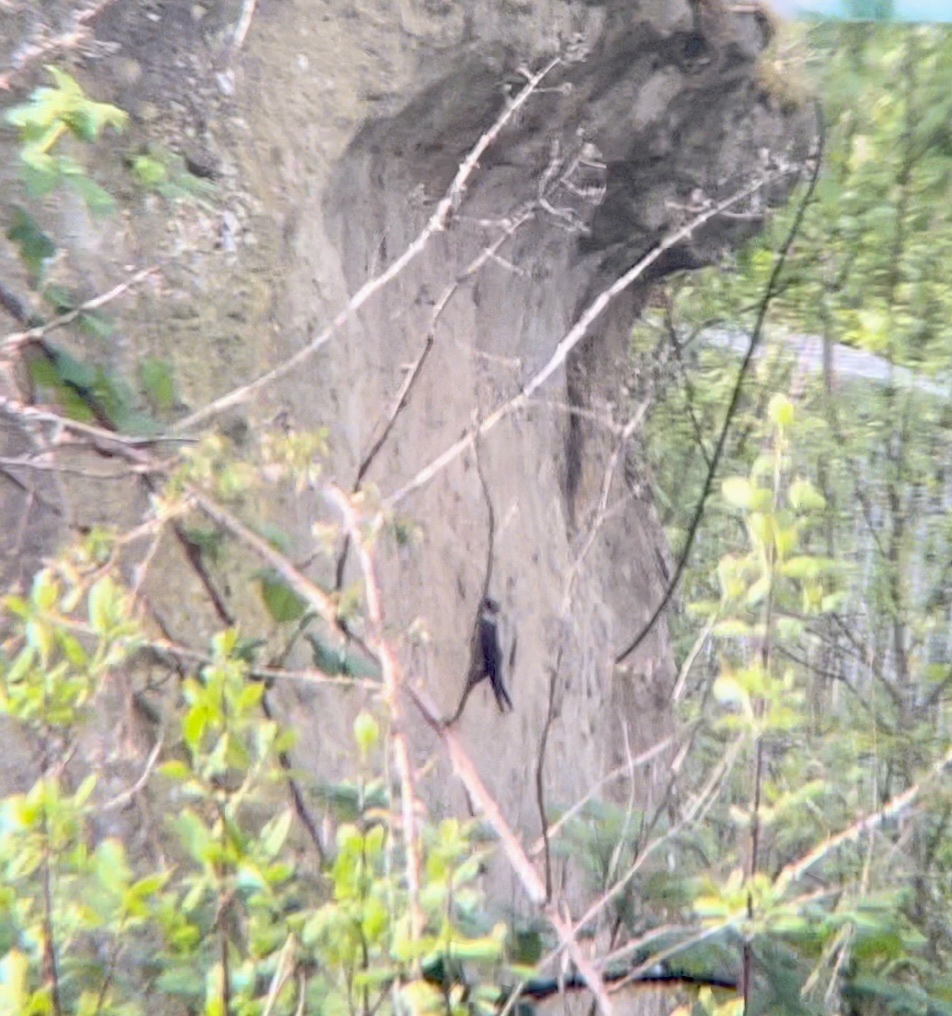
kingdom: Animalia
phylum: Chordata
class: Aves
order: Passeriformes
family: Hirundinidae
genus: Riparia
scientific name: Riparia riparia
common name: Sand martin
